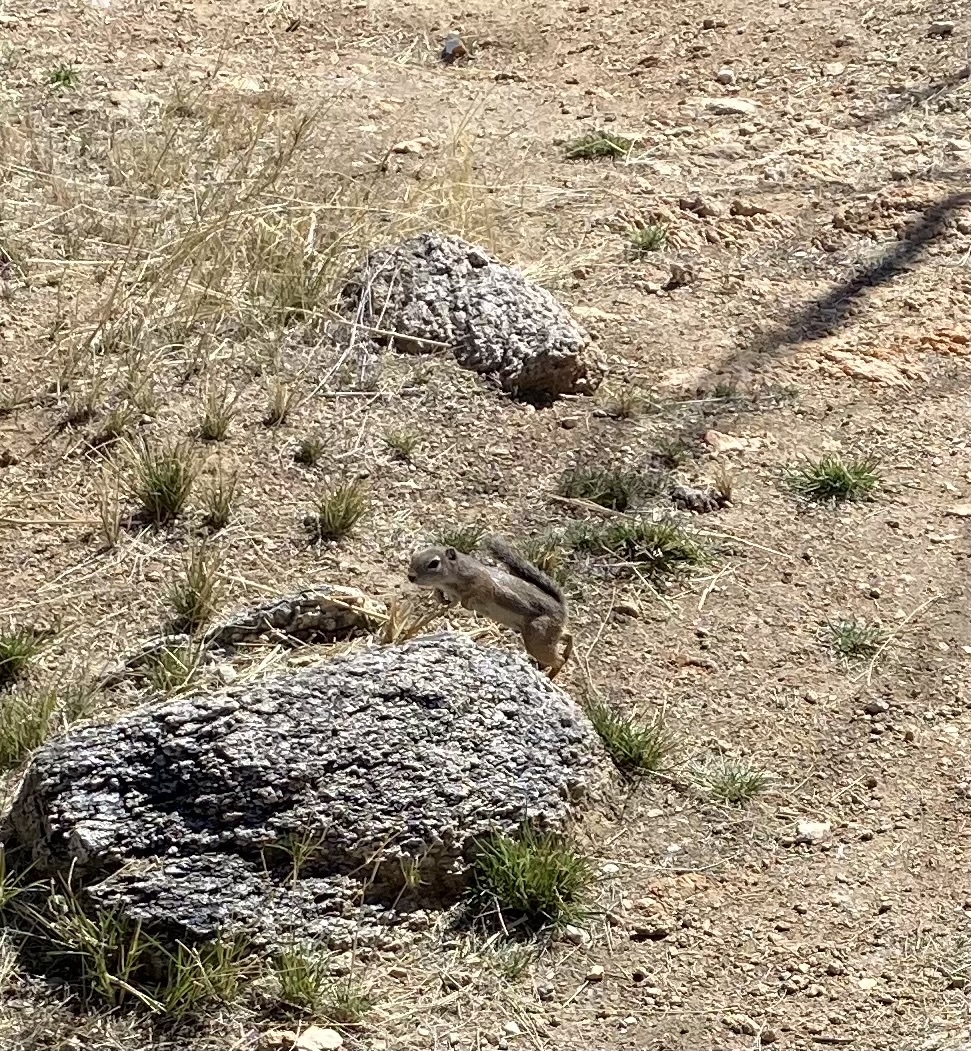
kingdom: Animalia
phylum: Chordata
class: Mammalia
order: Rodentia
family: Sciuridae
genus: Ammospermophilus
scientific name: Ammospermophilus harrisii
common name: Harris's antelope squirrel
